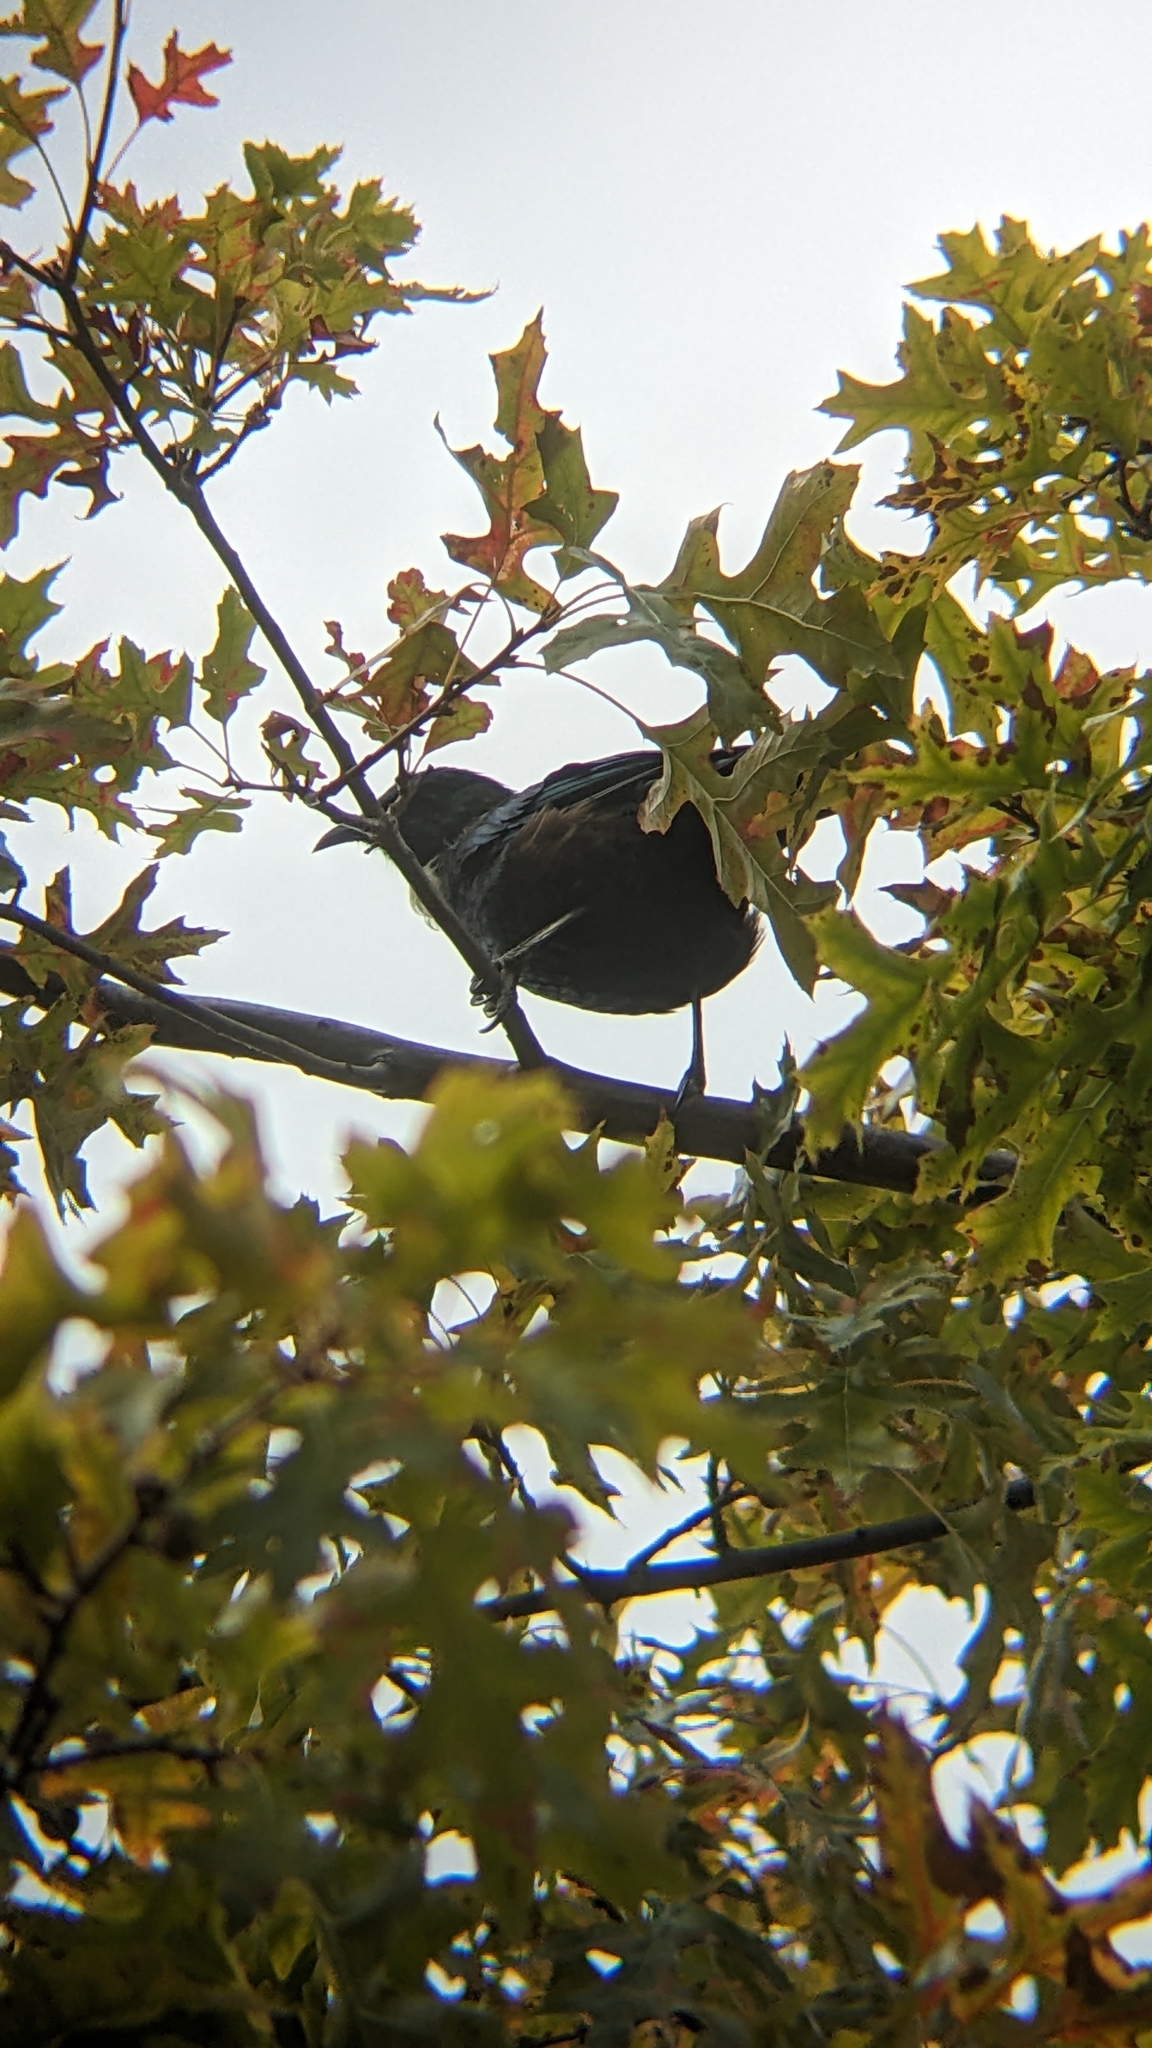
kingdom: Animalia
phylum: Chordata
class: Aves
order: Passeriformes
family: Meliphagidae
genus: Prosthemadera
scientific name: Prosthemadera novaeseelandiae
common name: Tui
